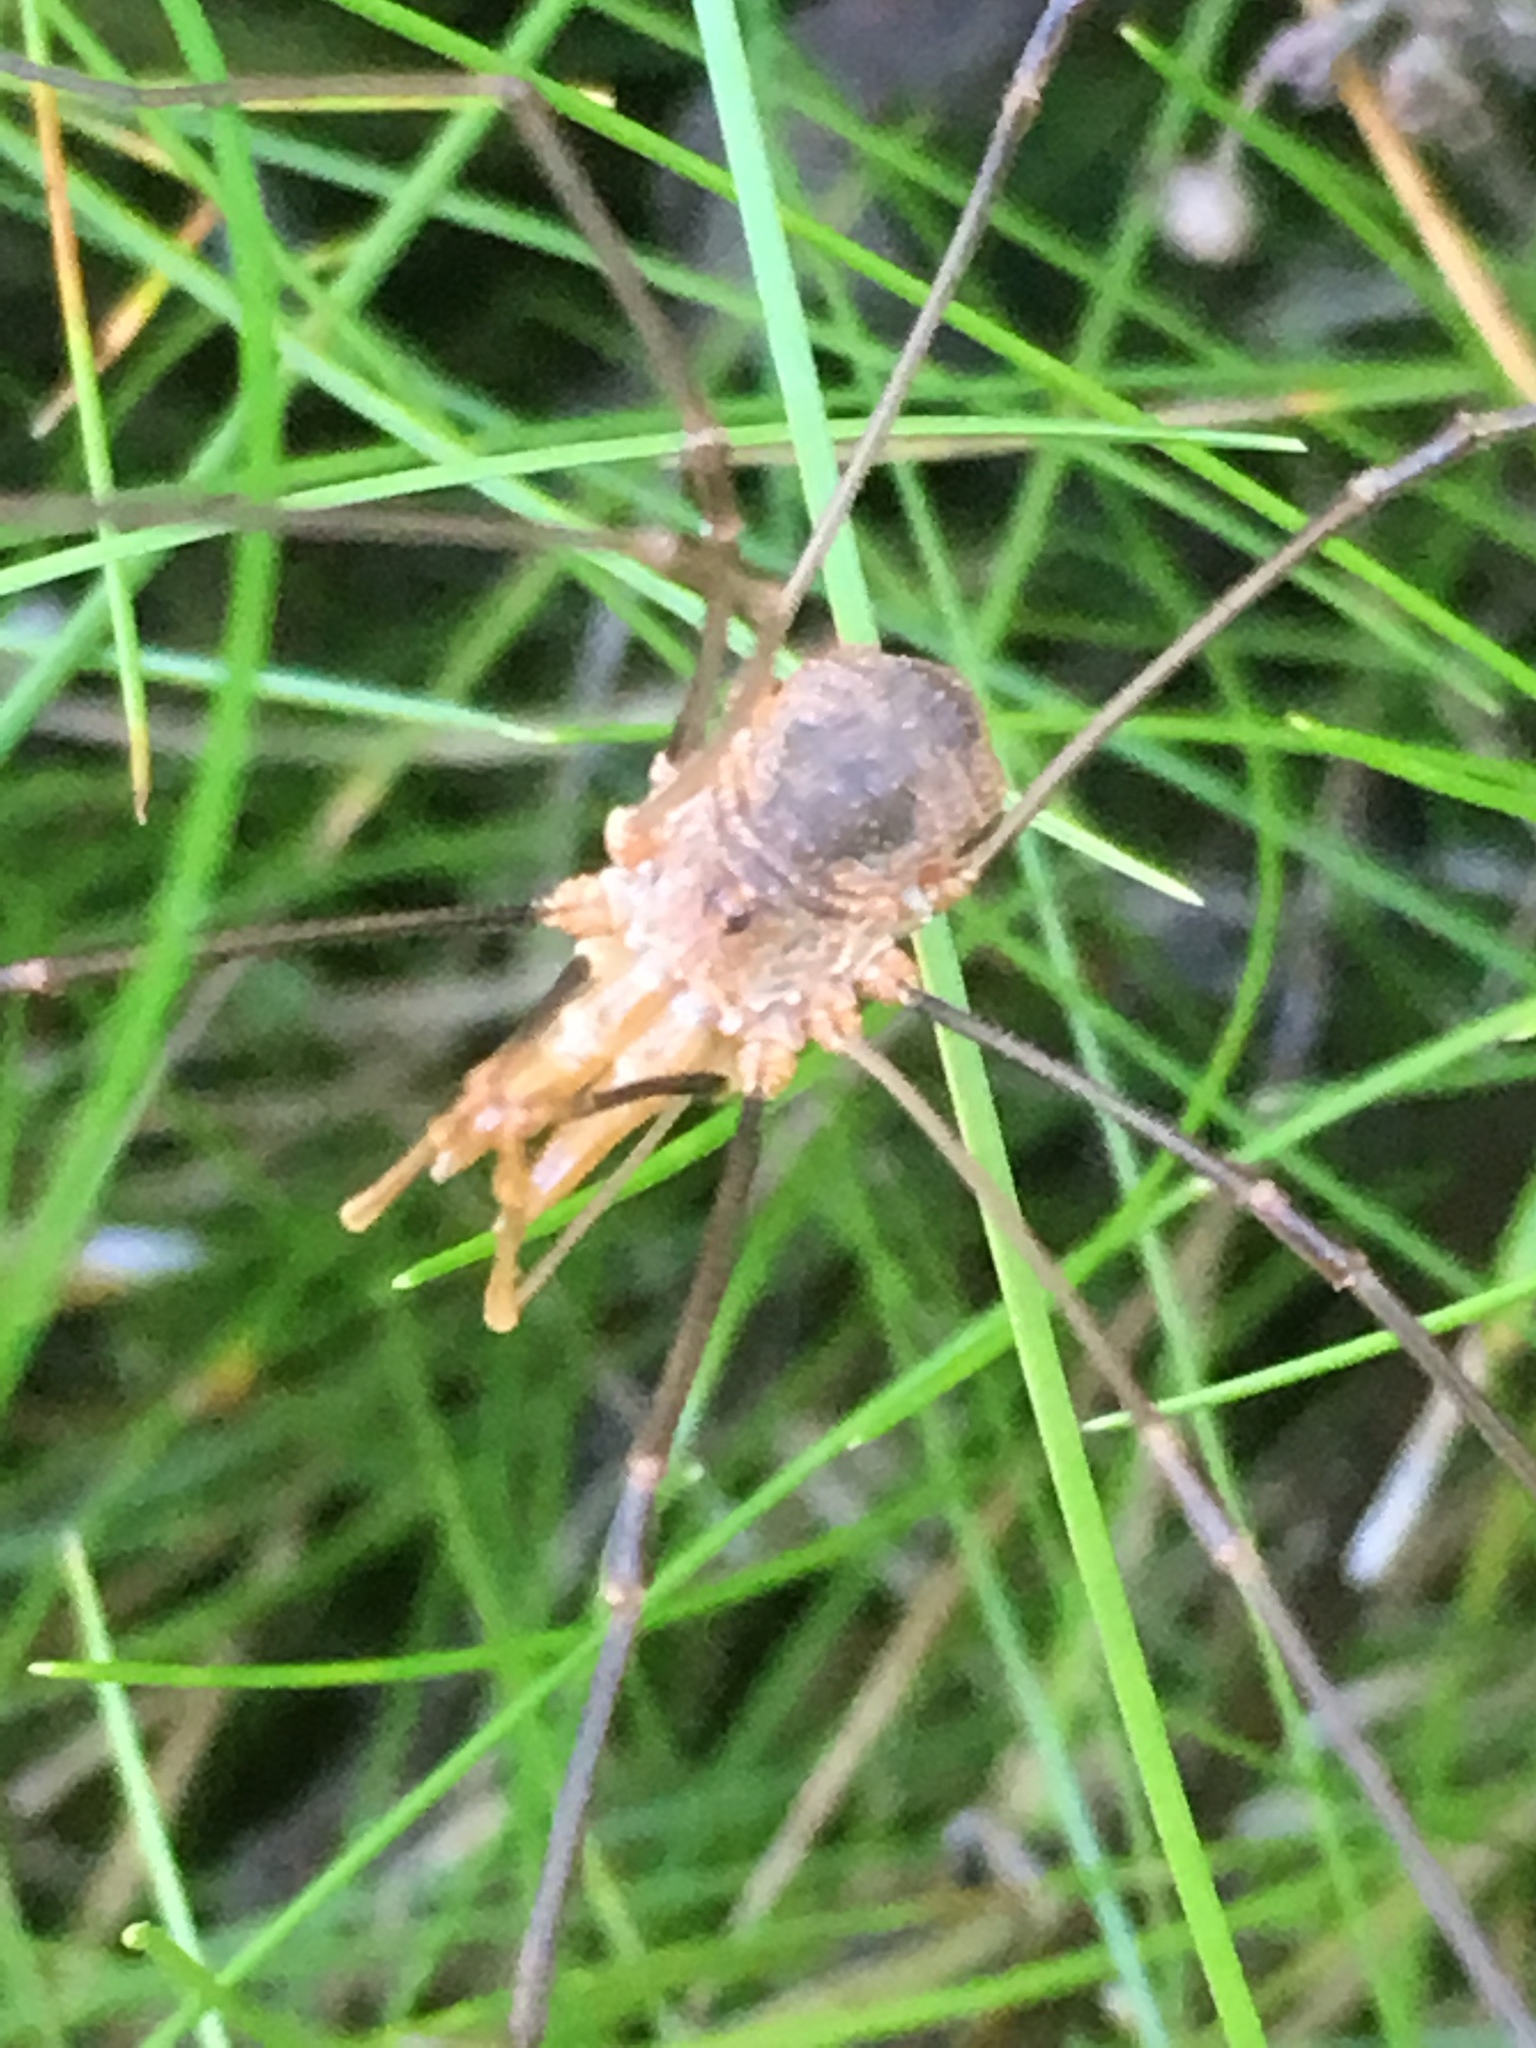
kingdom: Animalia
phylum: Arthropoda
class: Arachnida
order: Opiliones
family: Phalangiidae
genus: Phalangium
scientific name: Phalangium opilio
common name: Daddy longleg
